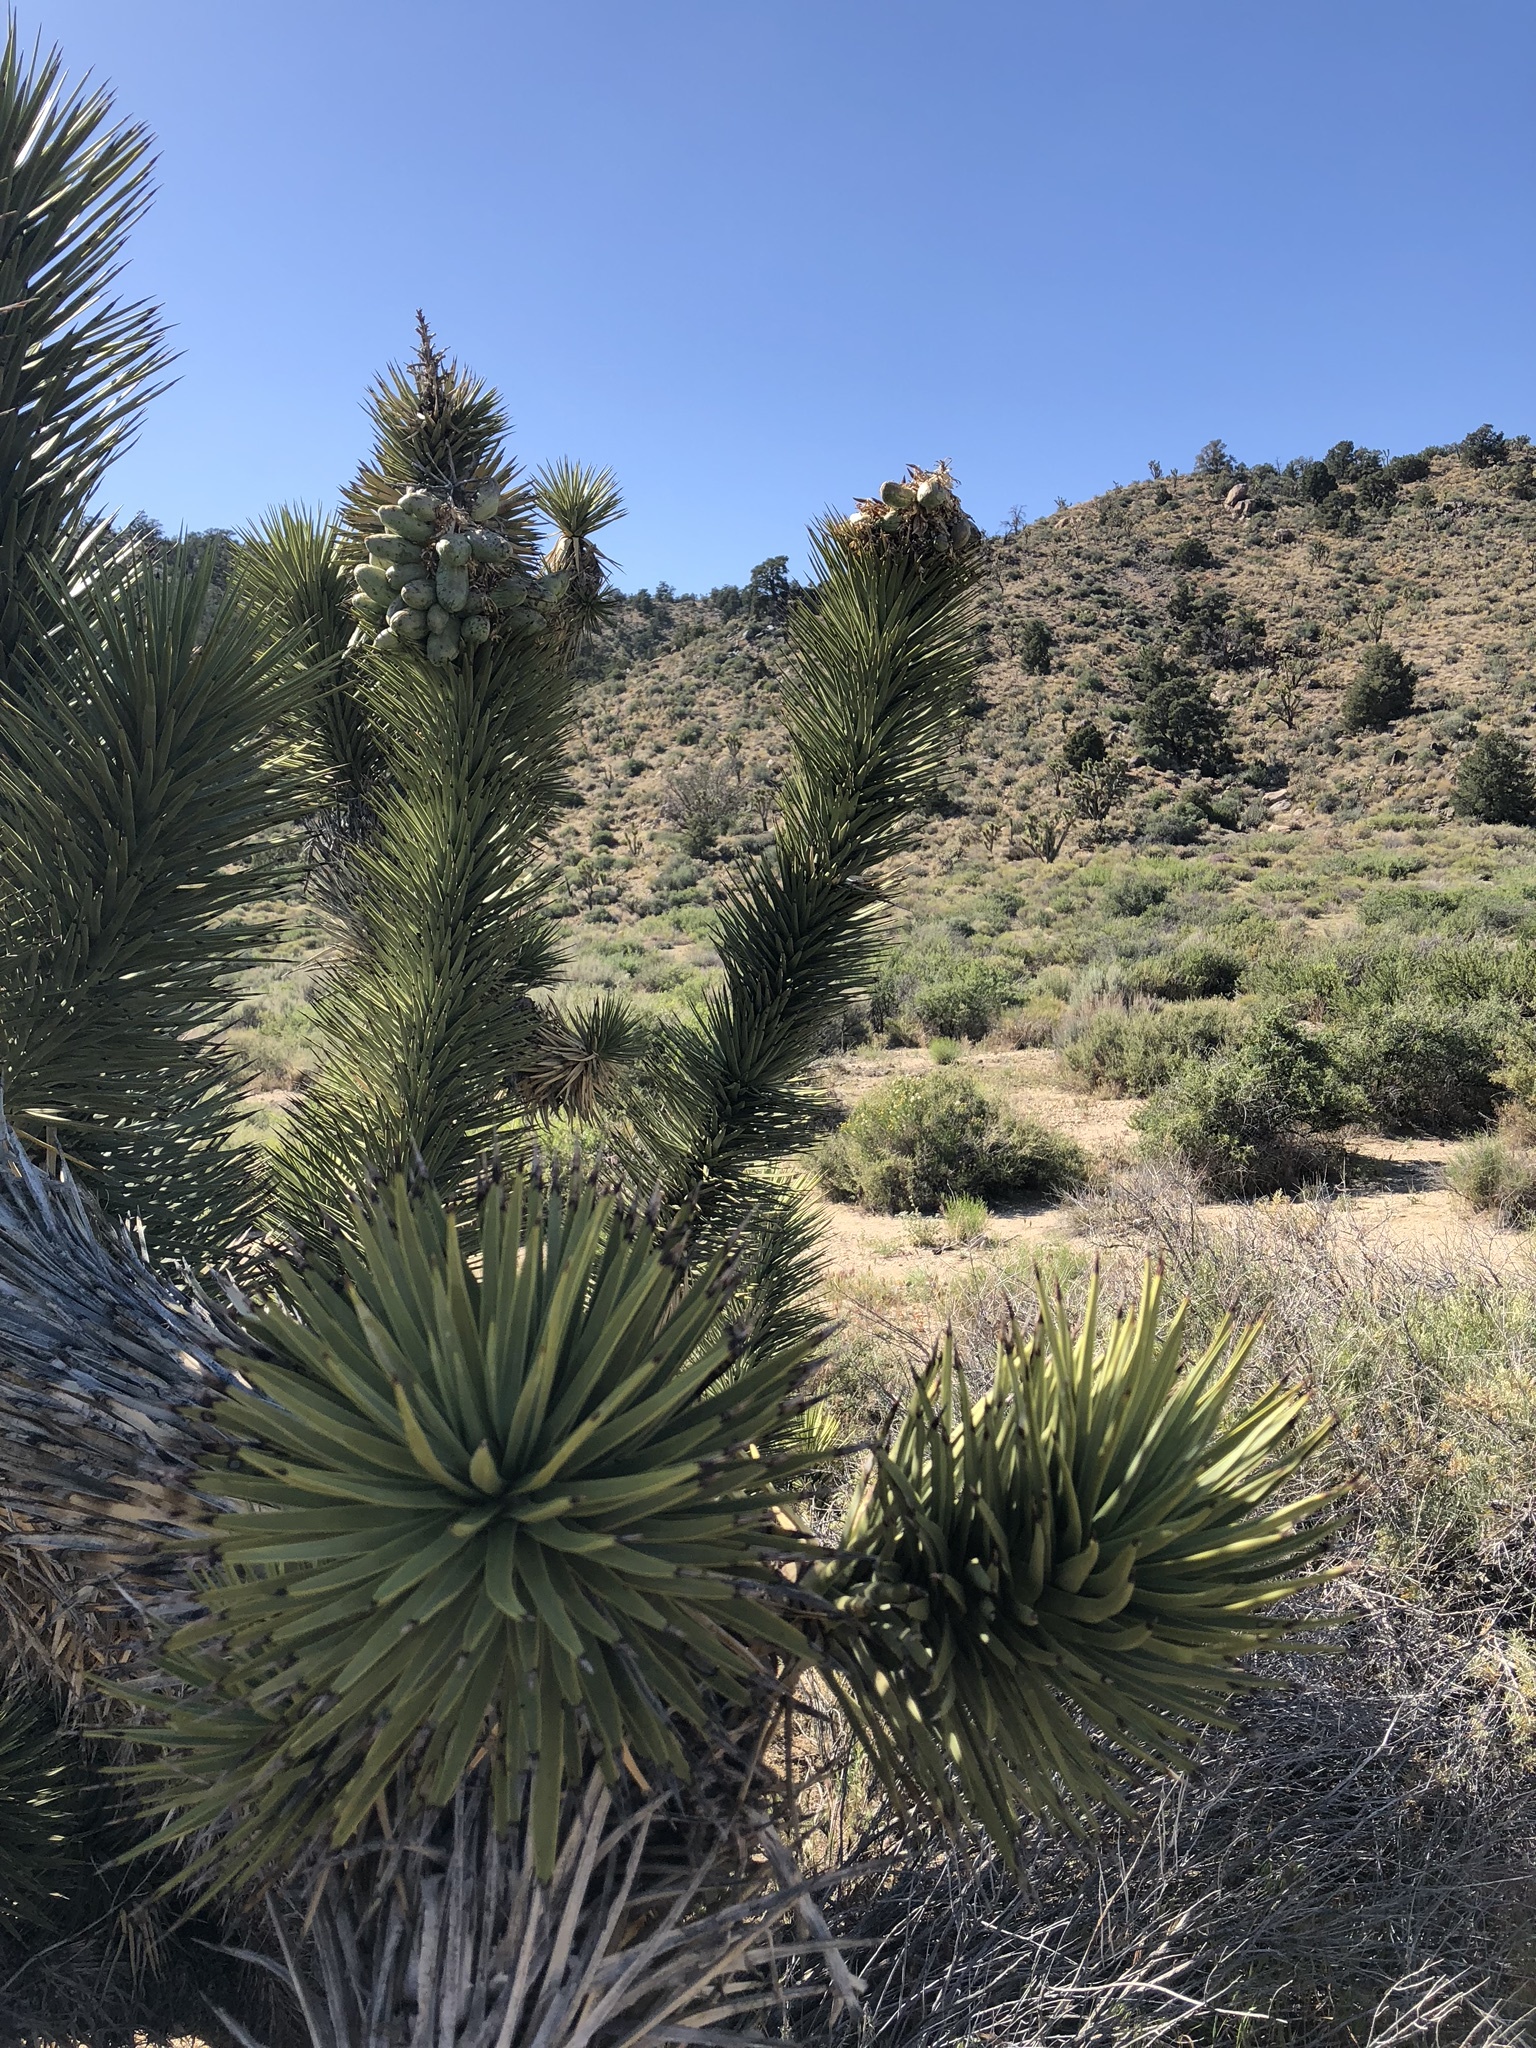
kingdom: Plantae
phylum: Tracheophyta
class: Liliopsida
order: Asparagales
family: Asparagaceae
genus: Yucca
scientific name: Yucca brevifolia
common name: Joshua tree
